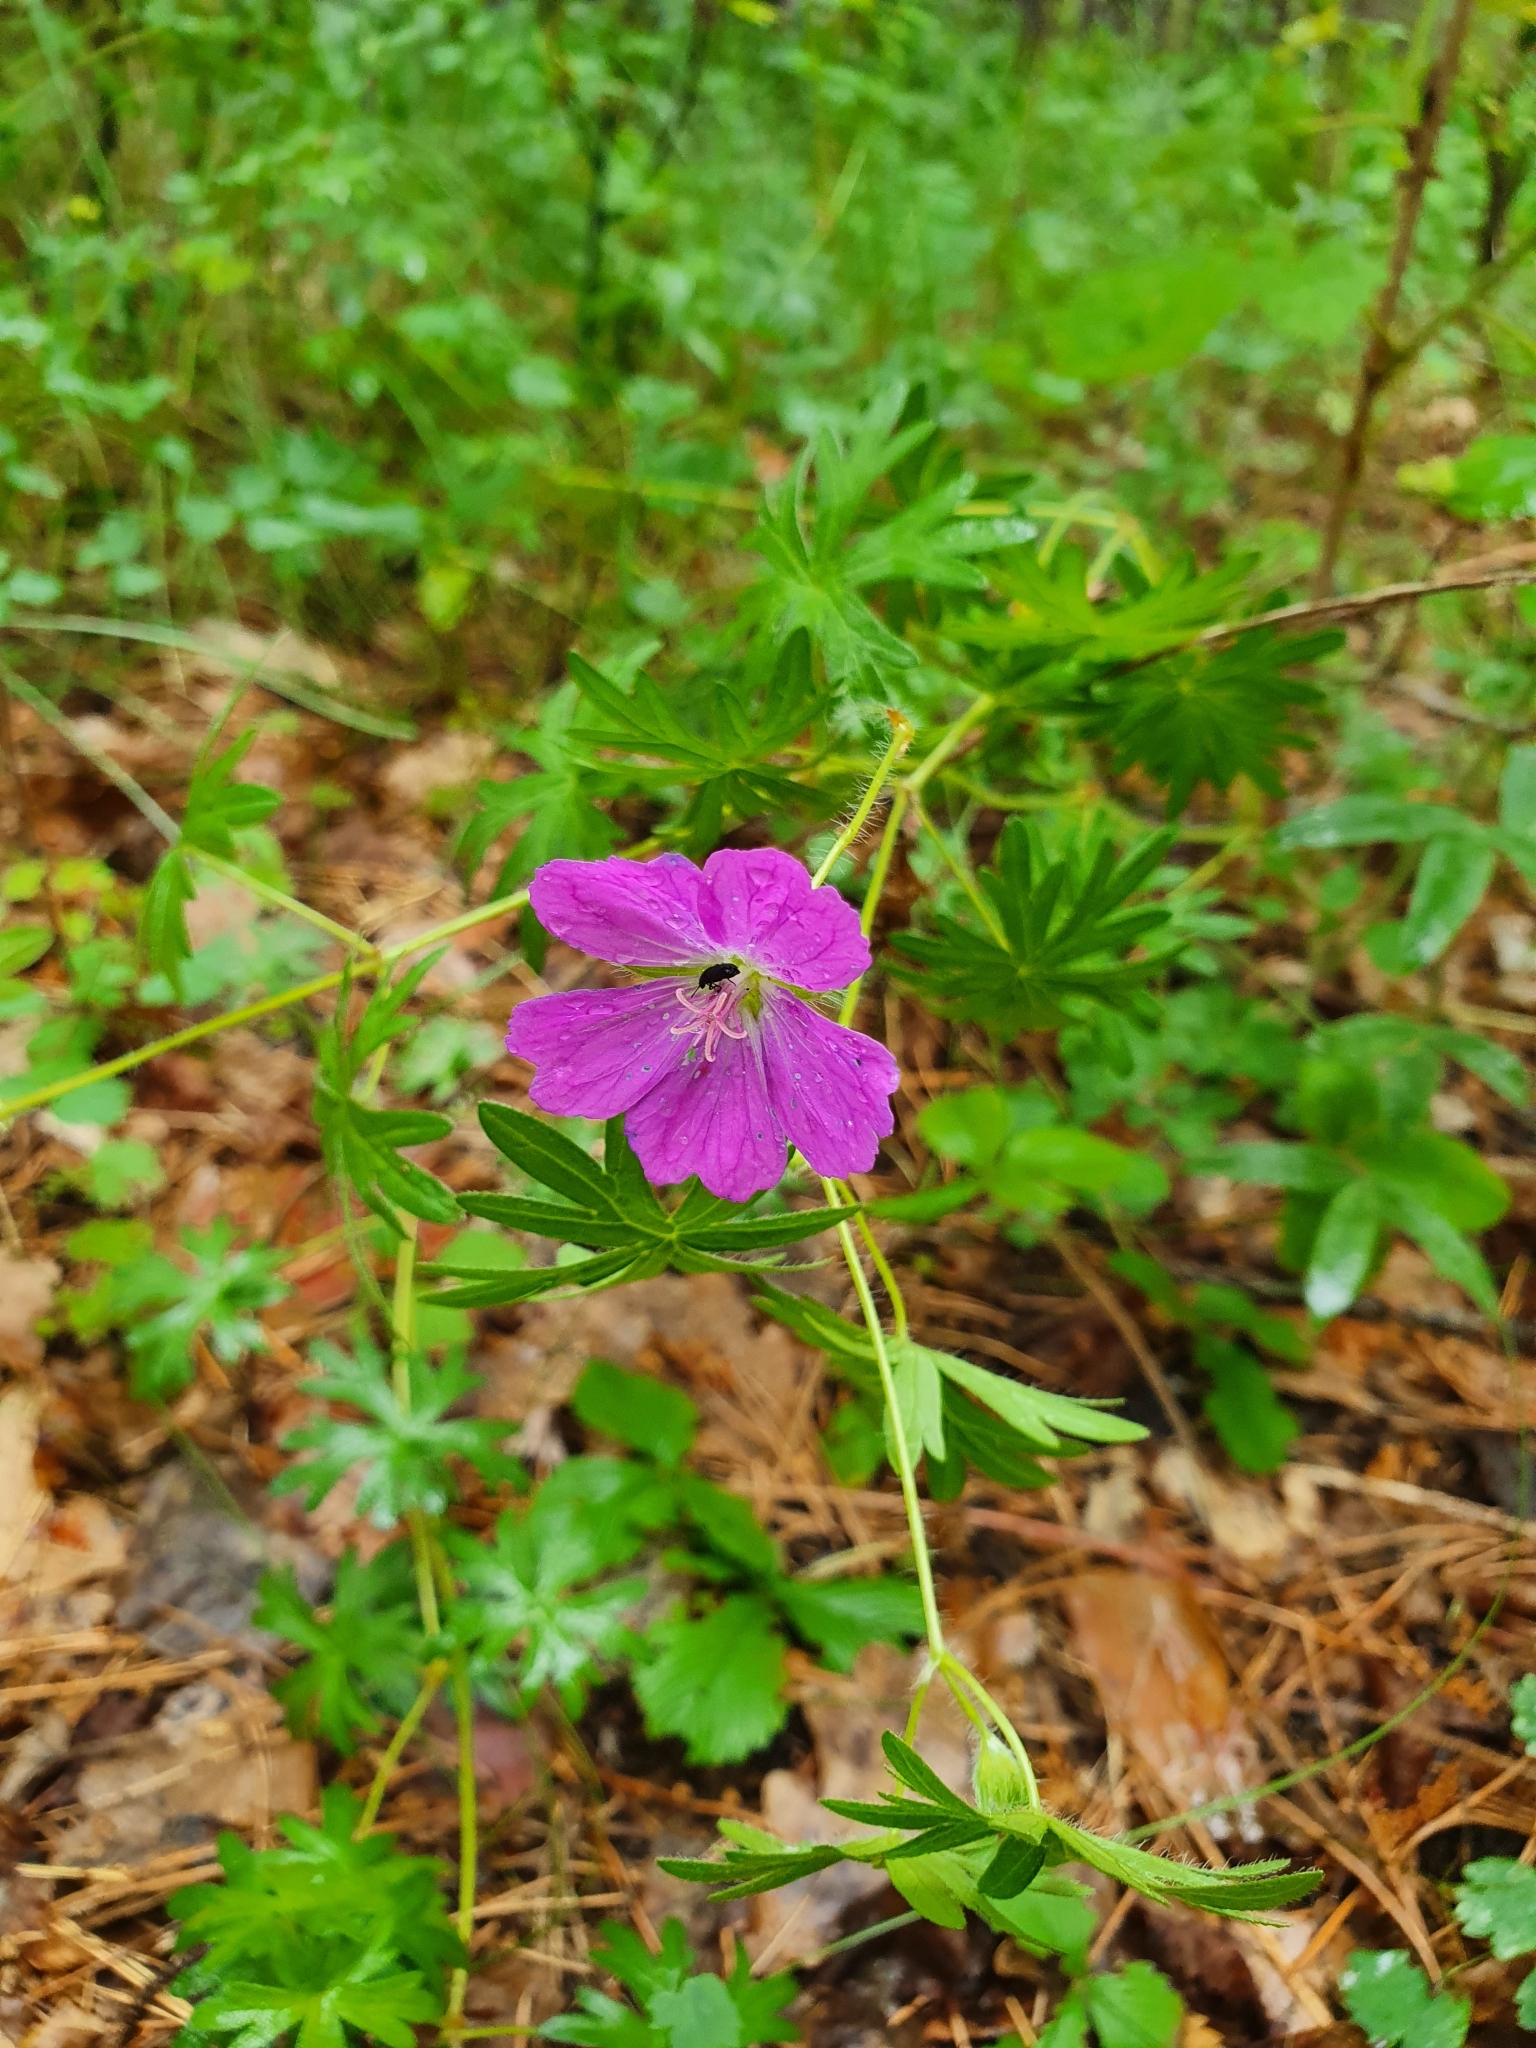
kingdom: Plantae
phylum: Tracheophyta
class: Magnoliopsida
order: Geraniales
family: Geraniaceae
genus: Geranium
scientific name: Geranium sanguineum
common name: Bloody crane's-bill
